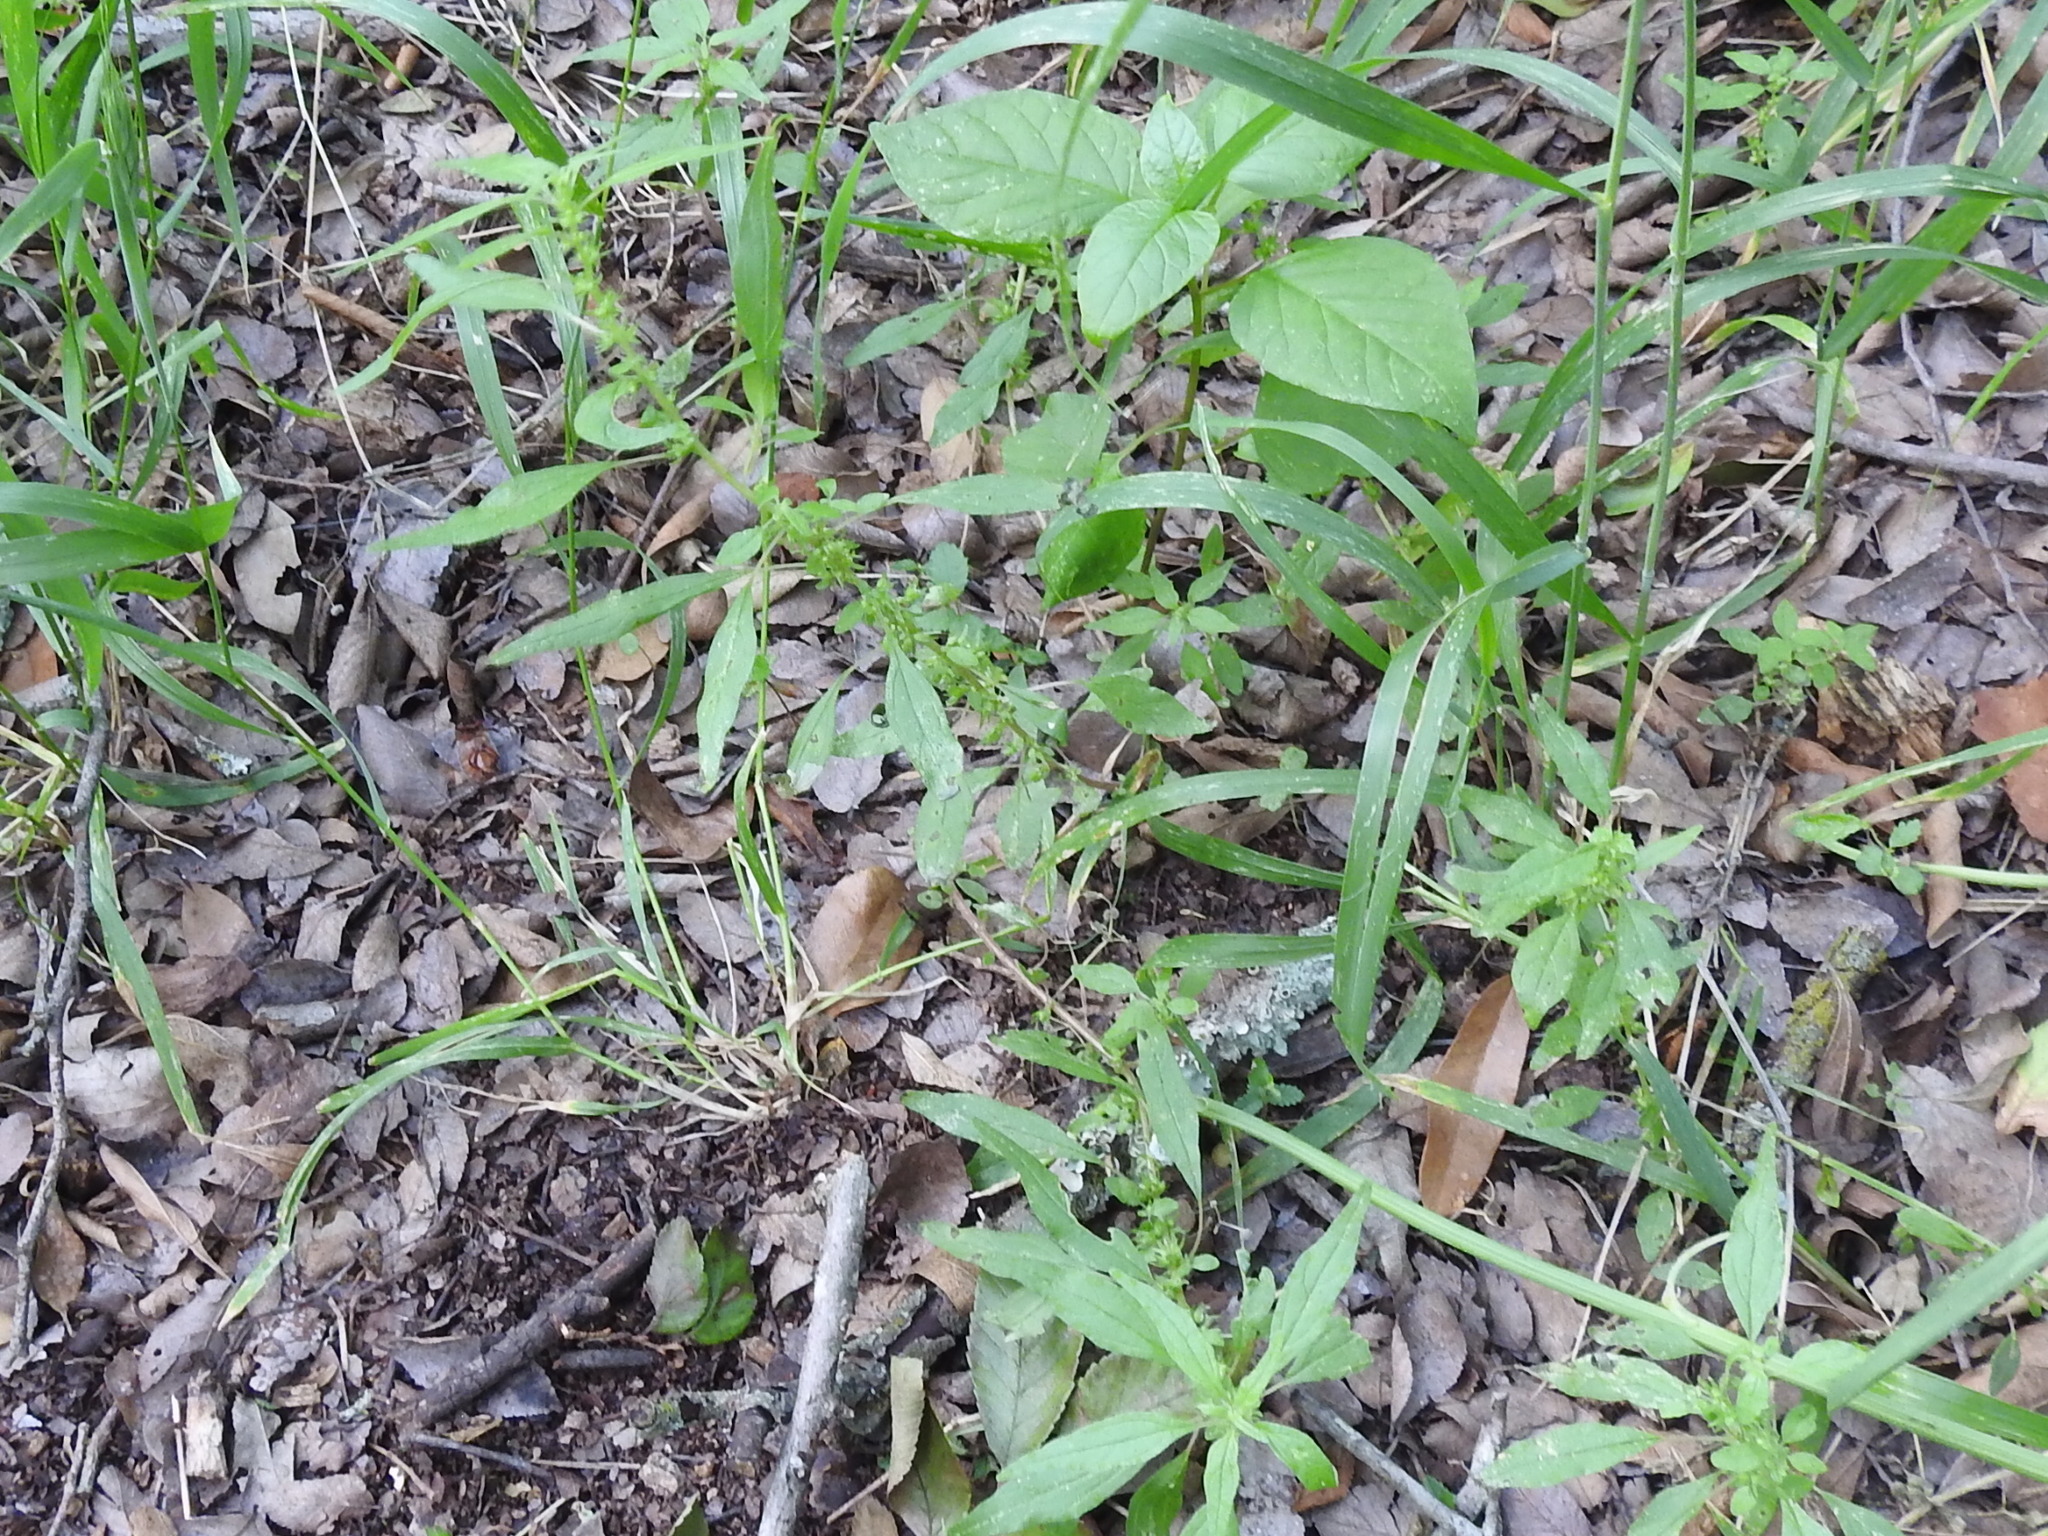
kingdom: Plantae
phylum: Tracheophyta
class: Magnoliopsida
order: Rosales
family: Urticaceae
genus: Parietaria
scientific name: Parietaria pensylvanica
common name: Pennsylvania pellitory
